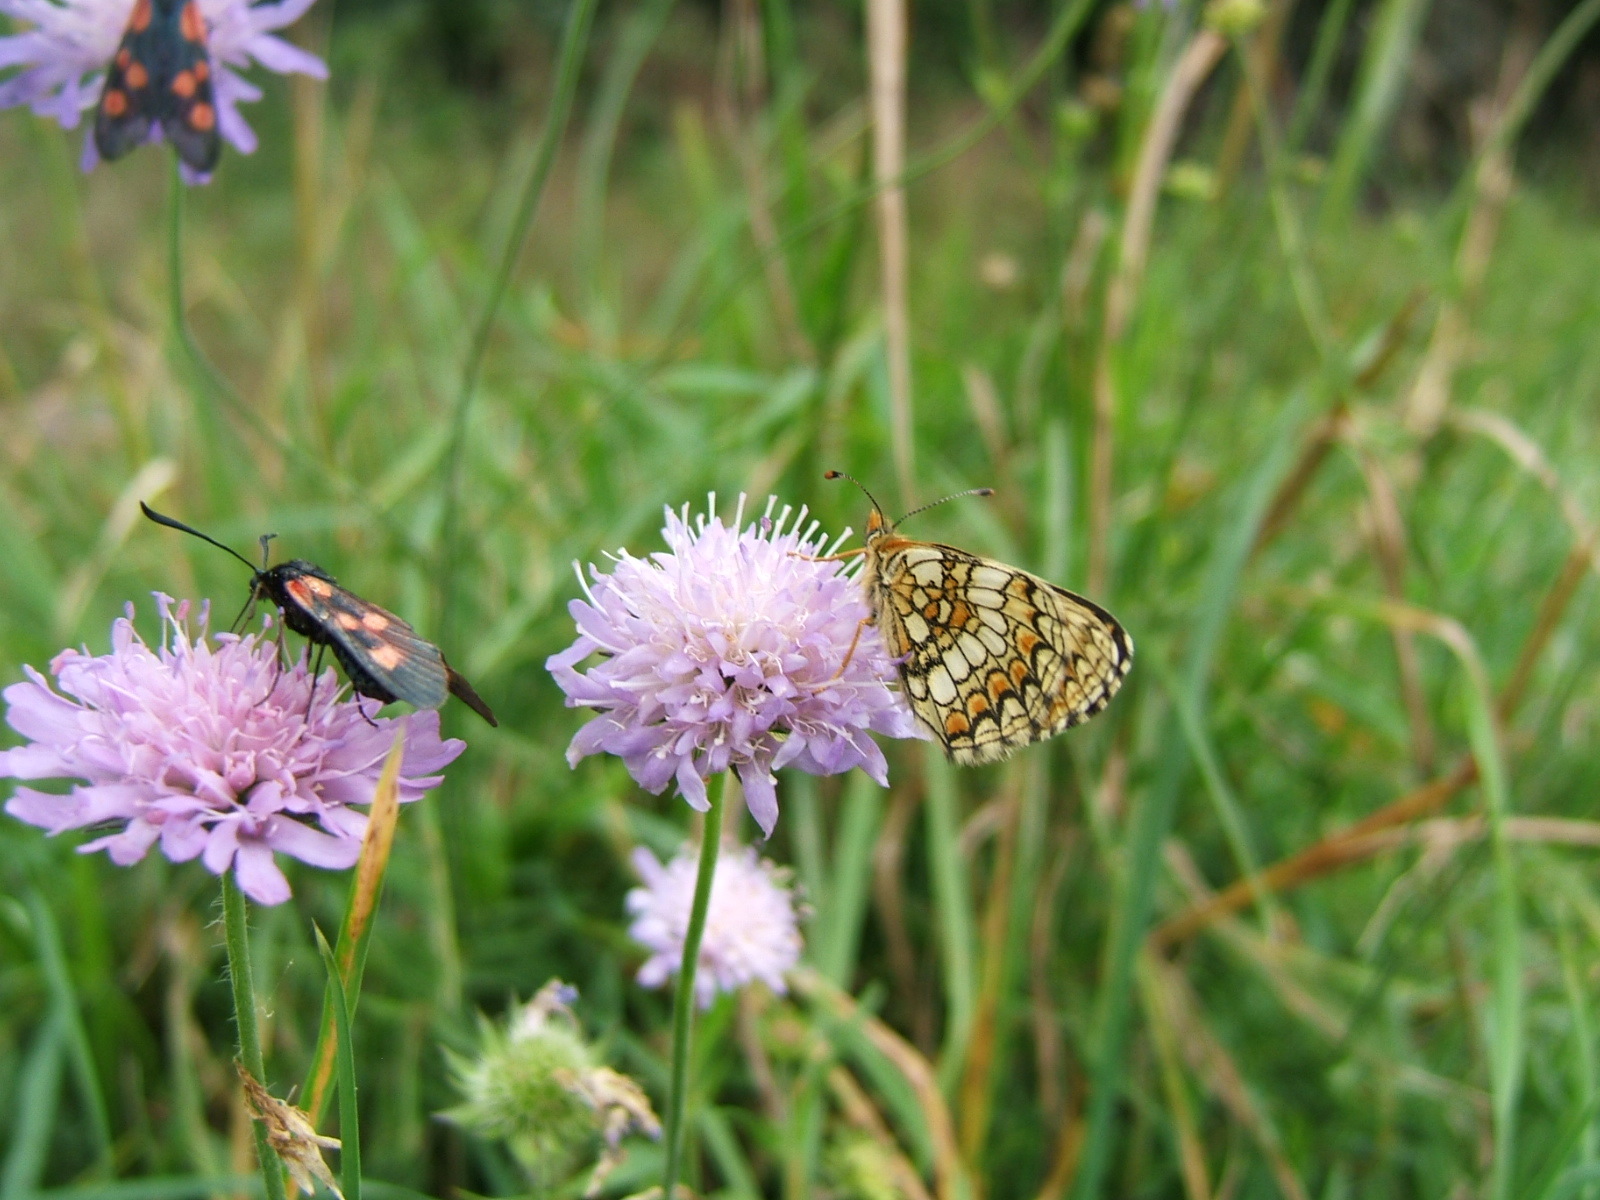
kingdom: Animalia
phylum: Arthropoda
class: Insecta
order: Lepidoptera
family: Nymphalidae
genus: Melitaea
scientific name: Melitaea phoebe
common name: Knapweed fritillary
